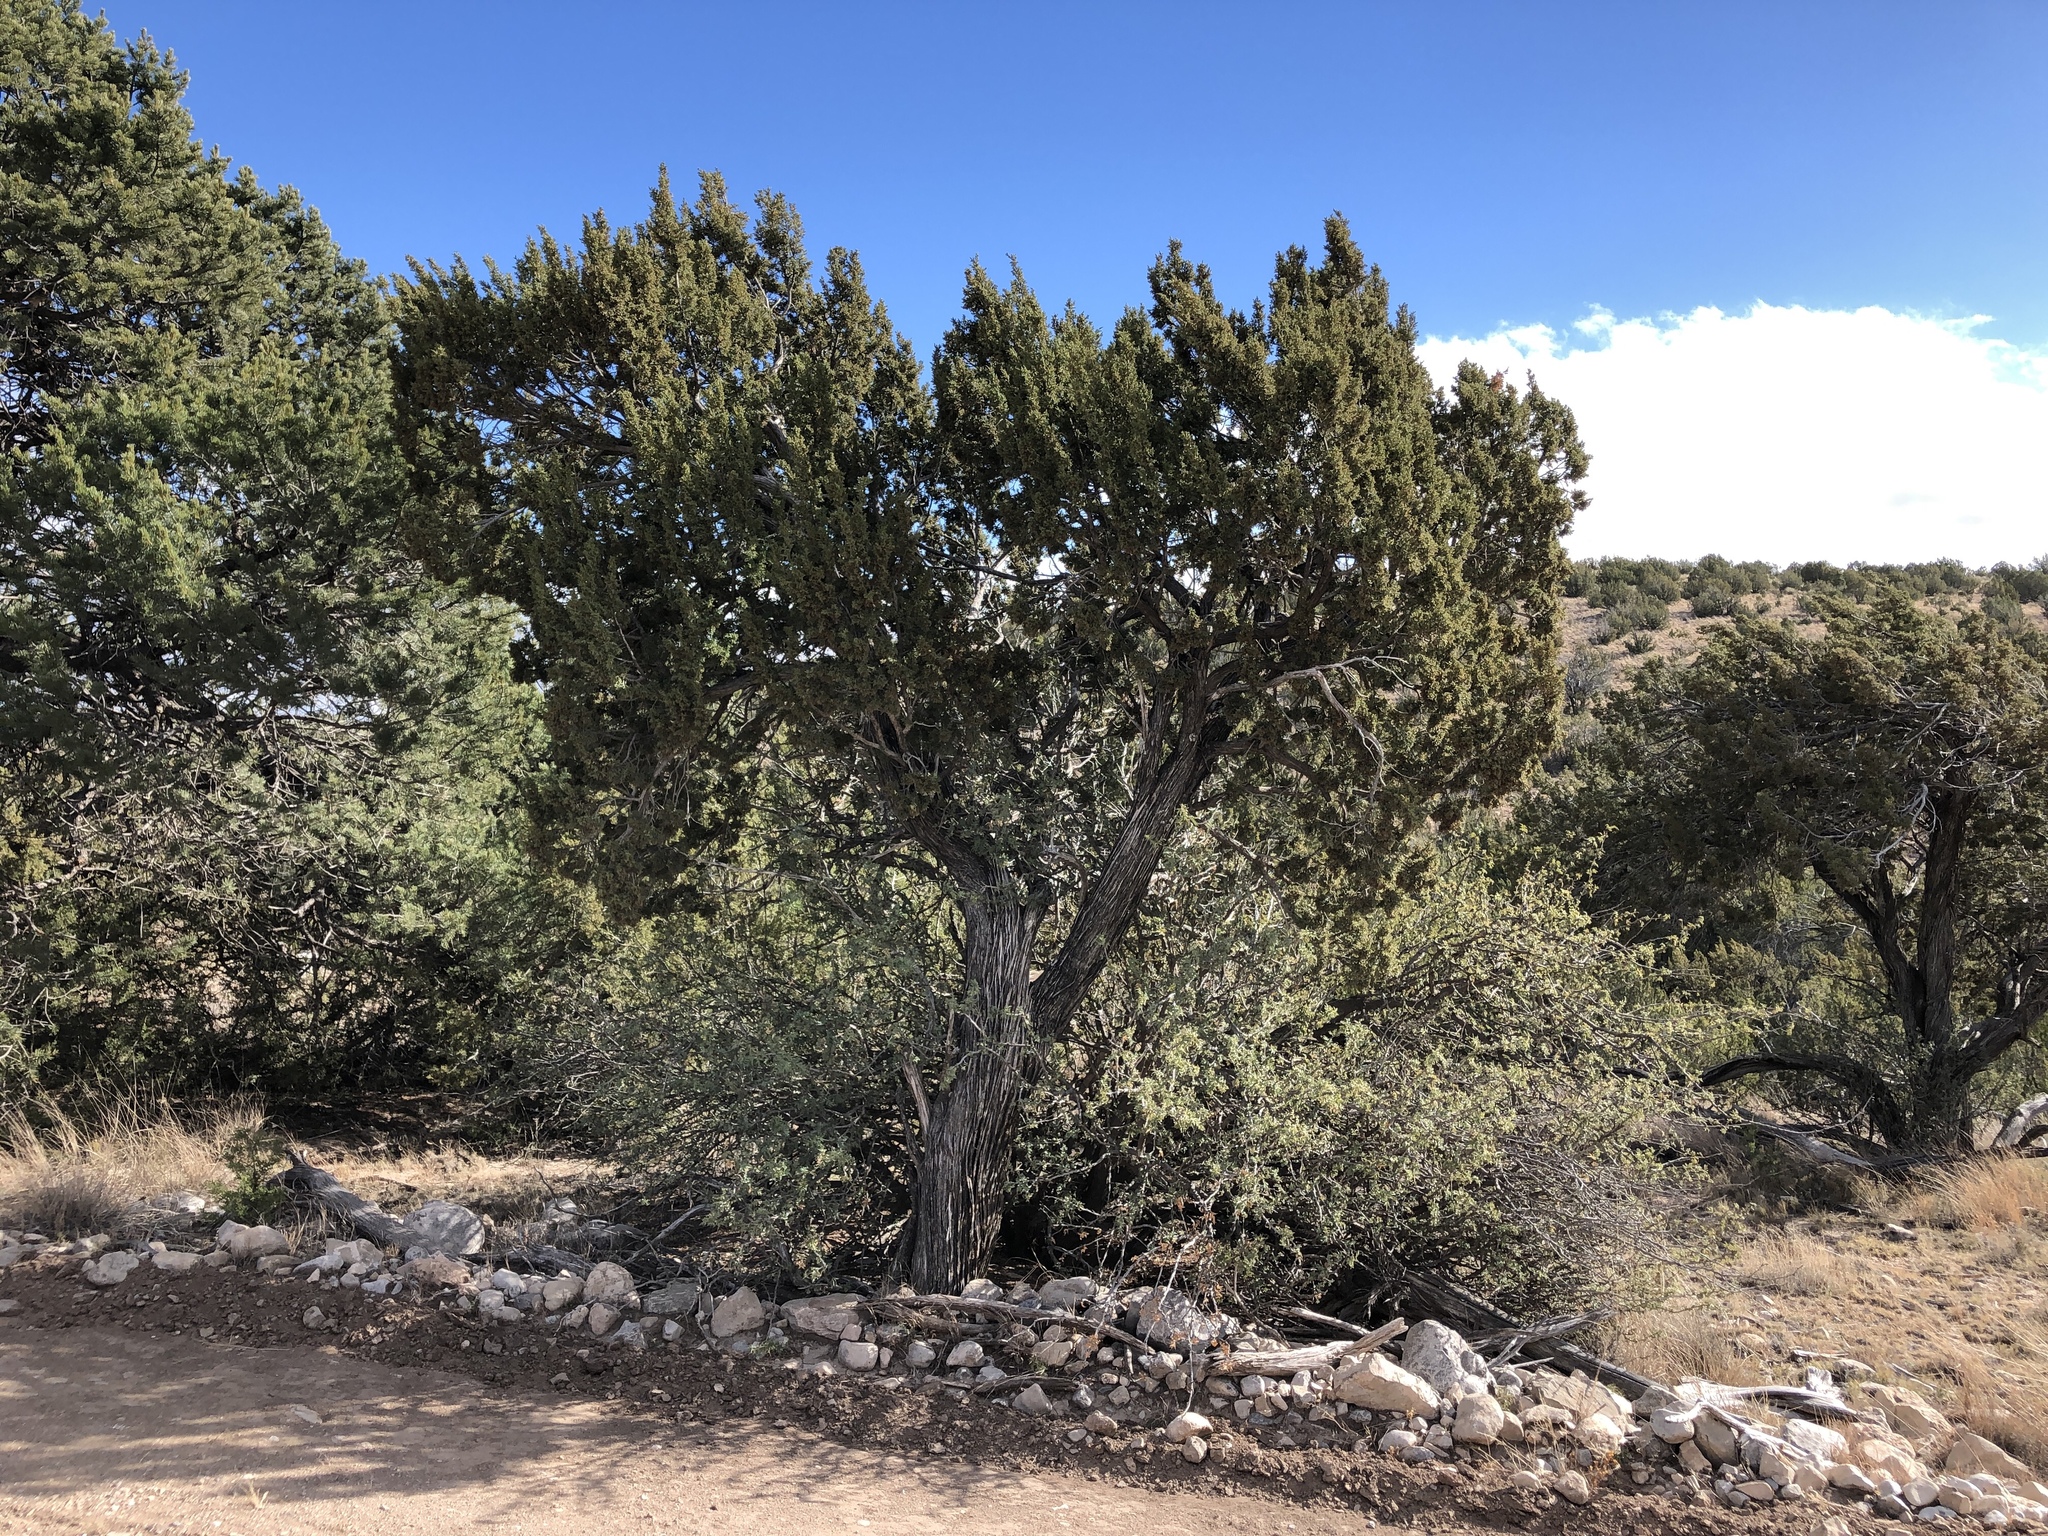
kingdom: Plantae
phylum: Tracheophyta
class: Pinopsida
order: Pinales
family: Cupressaceae
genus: Juniperus
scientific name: Juniperus monosperma
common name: One-seed juniper
